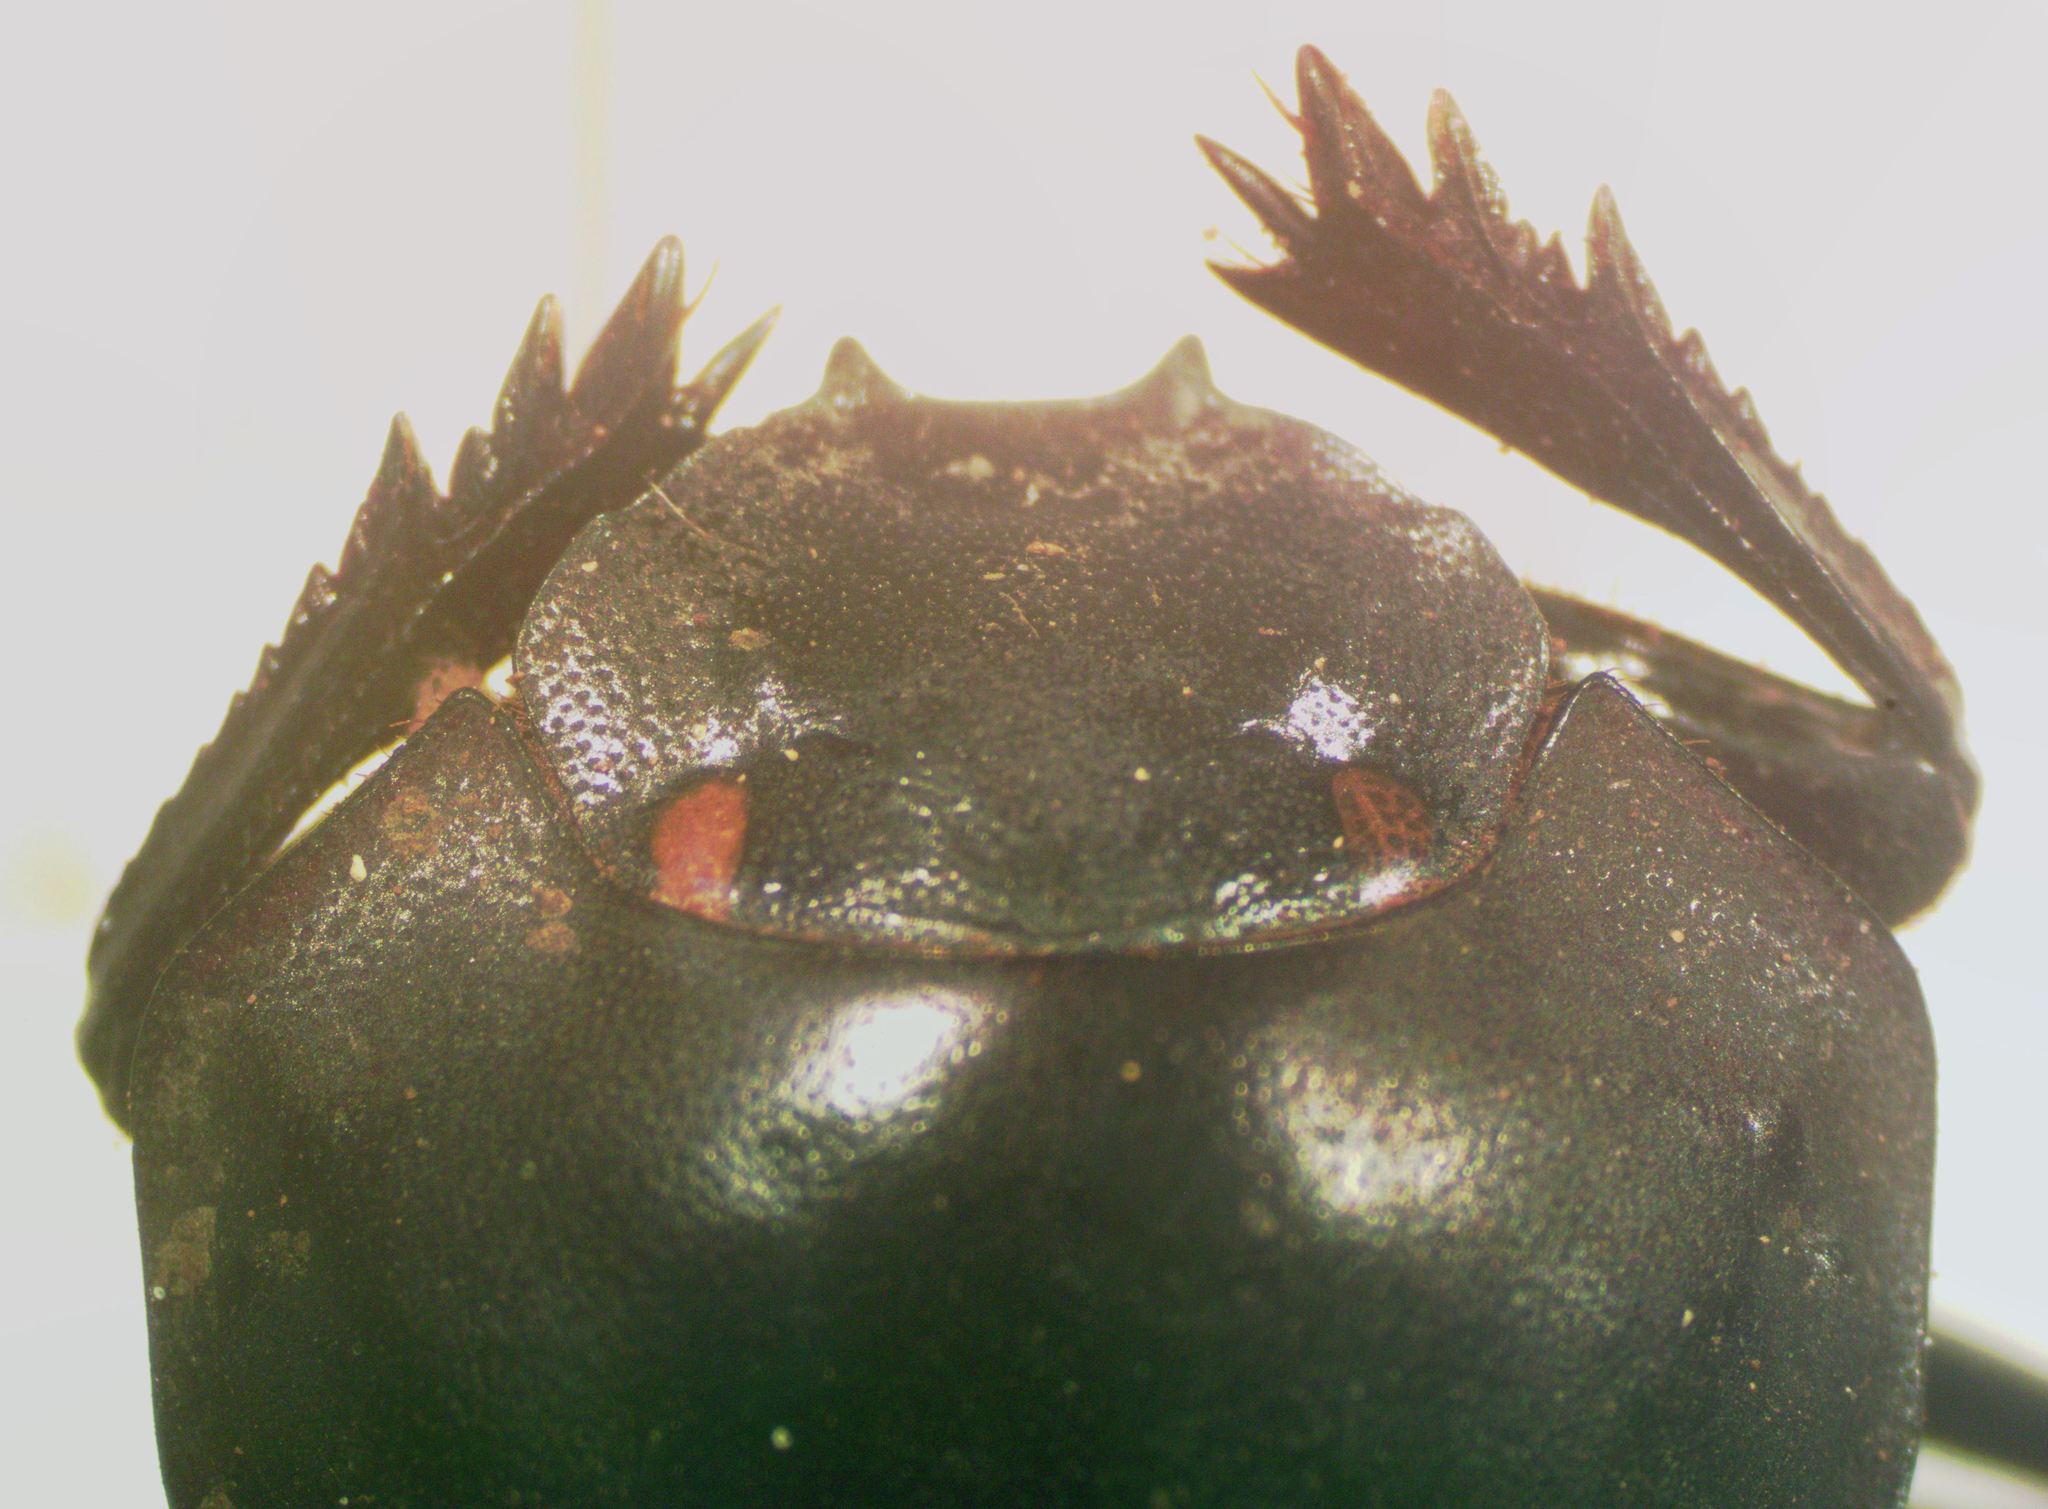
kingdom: Animalia
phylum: Arthropoda
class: Insecta
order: Coleoptera
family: Scarabaeidae
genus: Deltochilum
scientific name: Deltochilum scabriusculum
